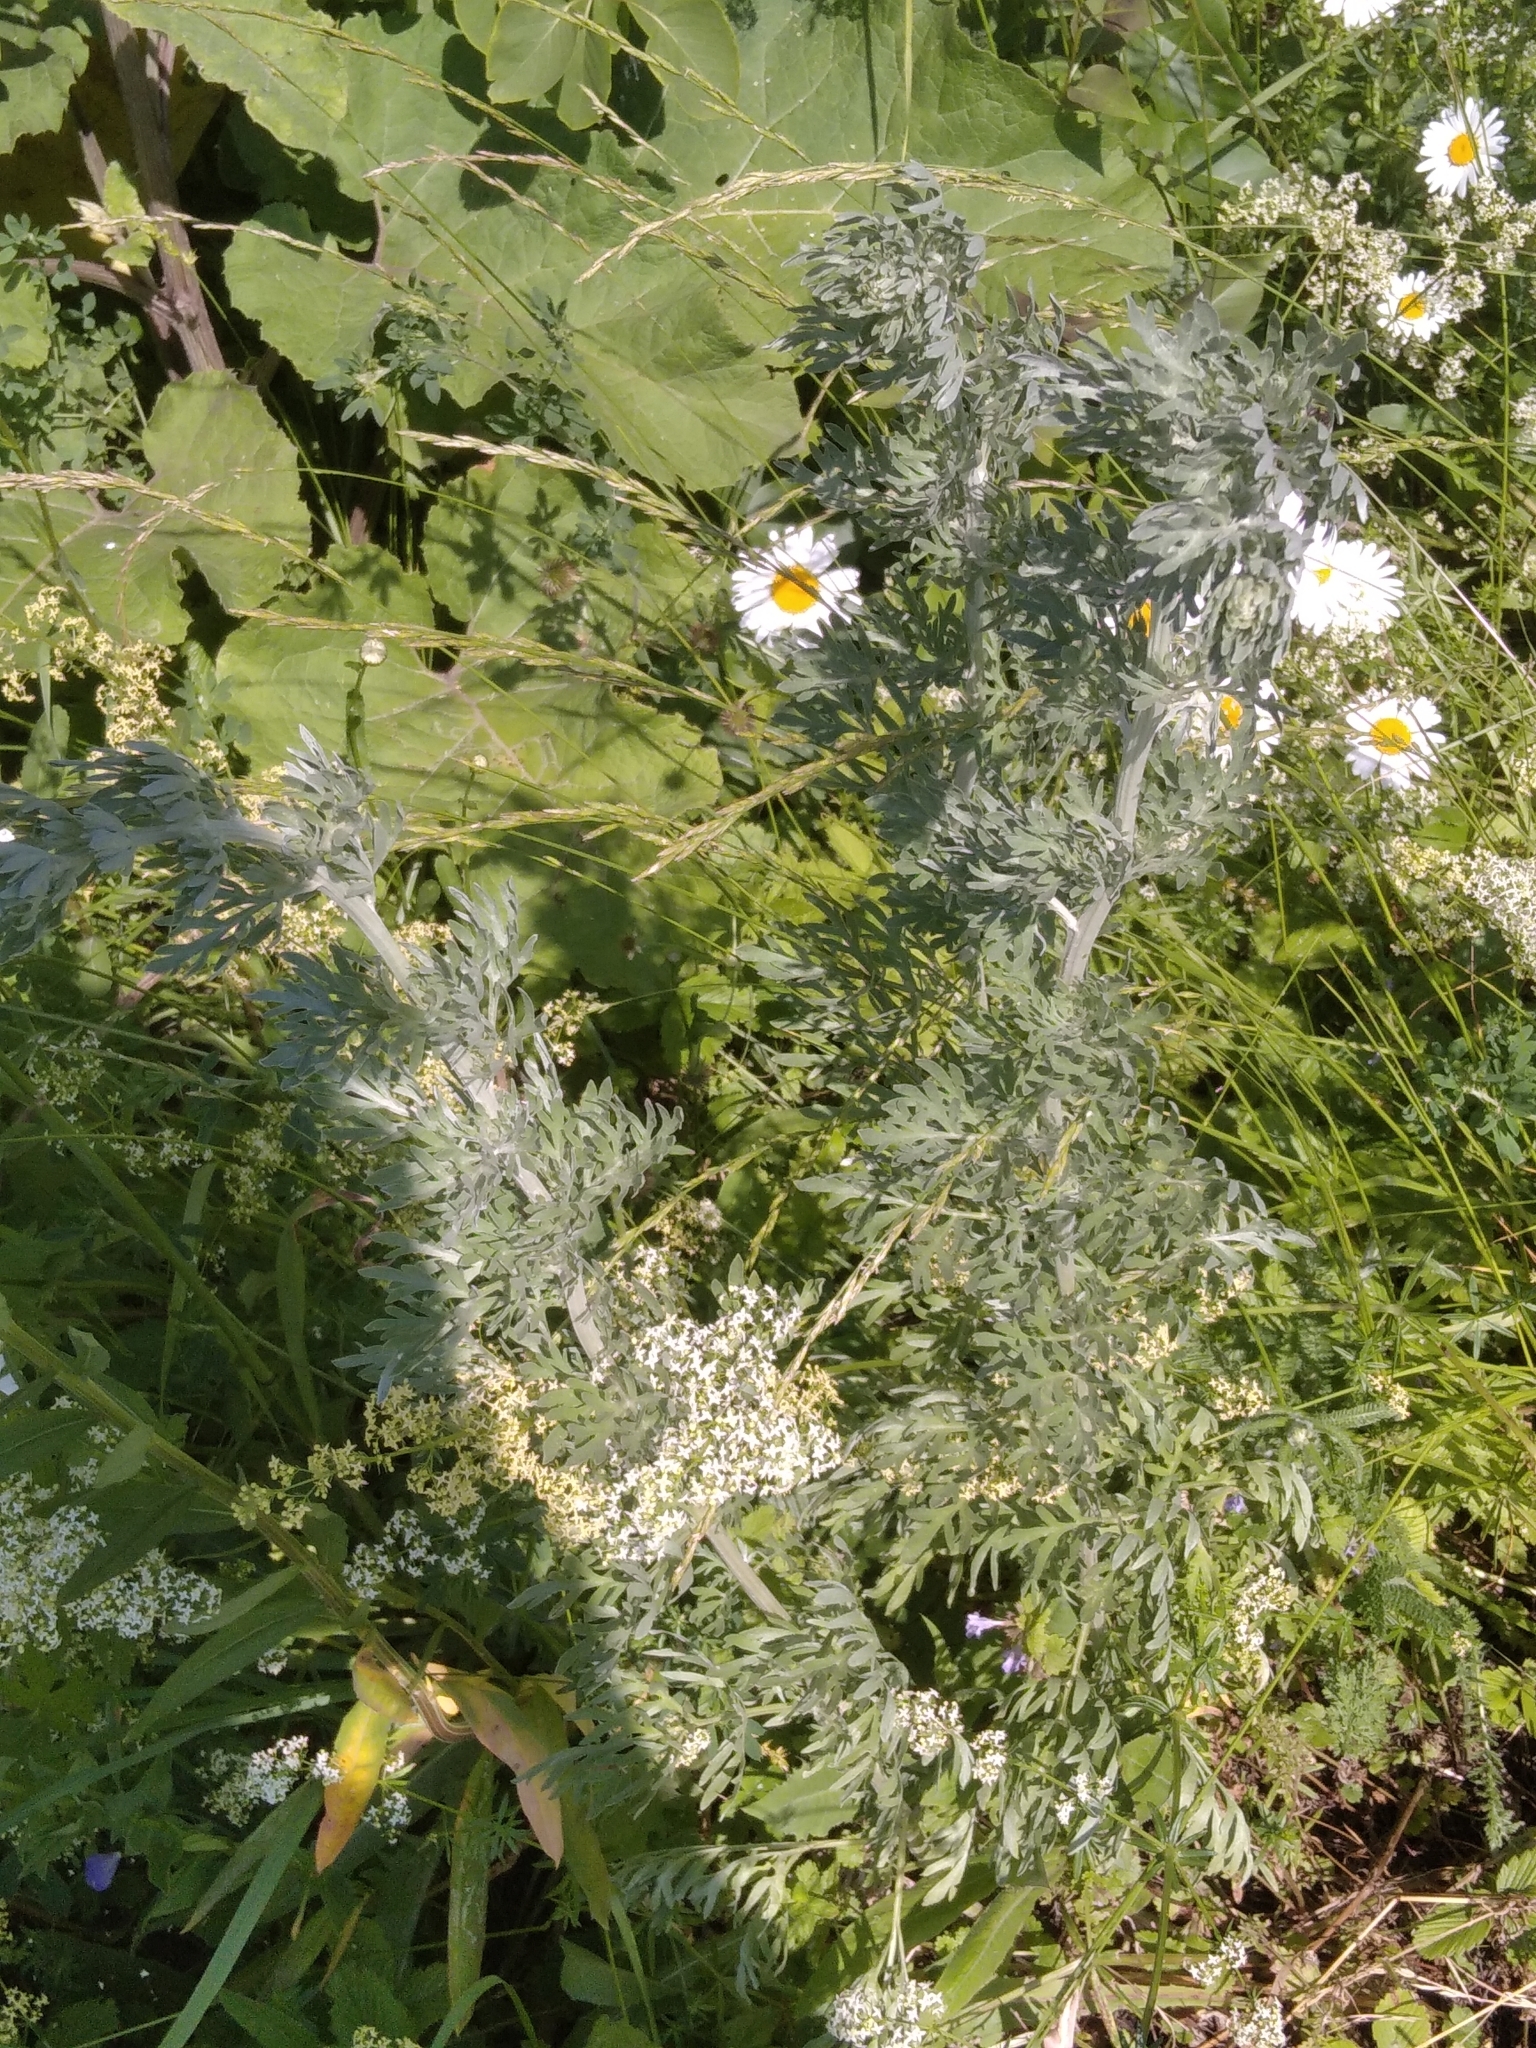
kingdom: Plantae
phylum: Tracheophyta
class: Magnoliopsida
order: Asterales
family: Asteraceae
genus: Artemisia
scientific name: Artemisia absinthium
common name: Wormwood
